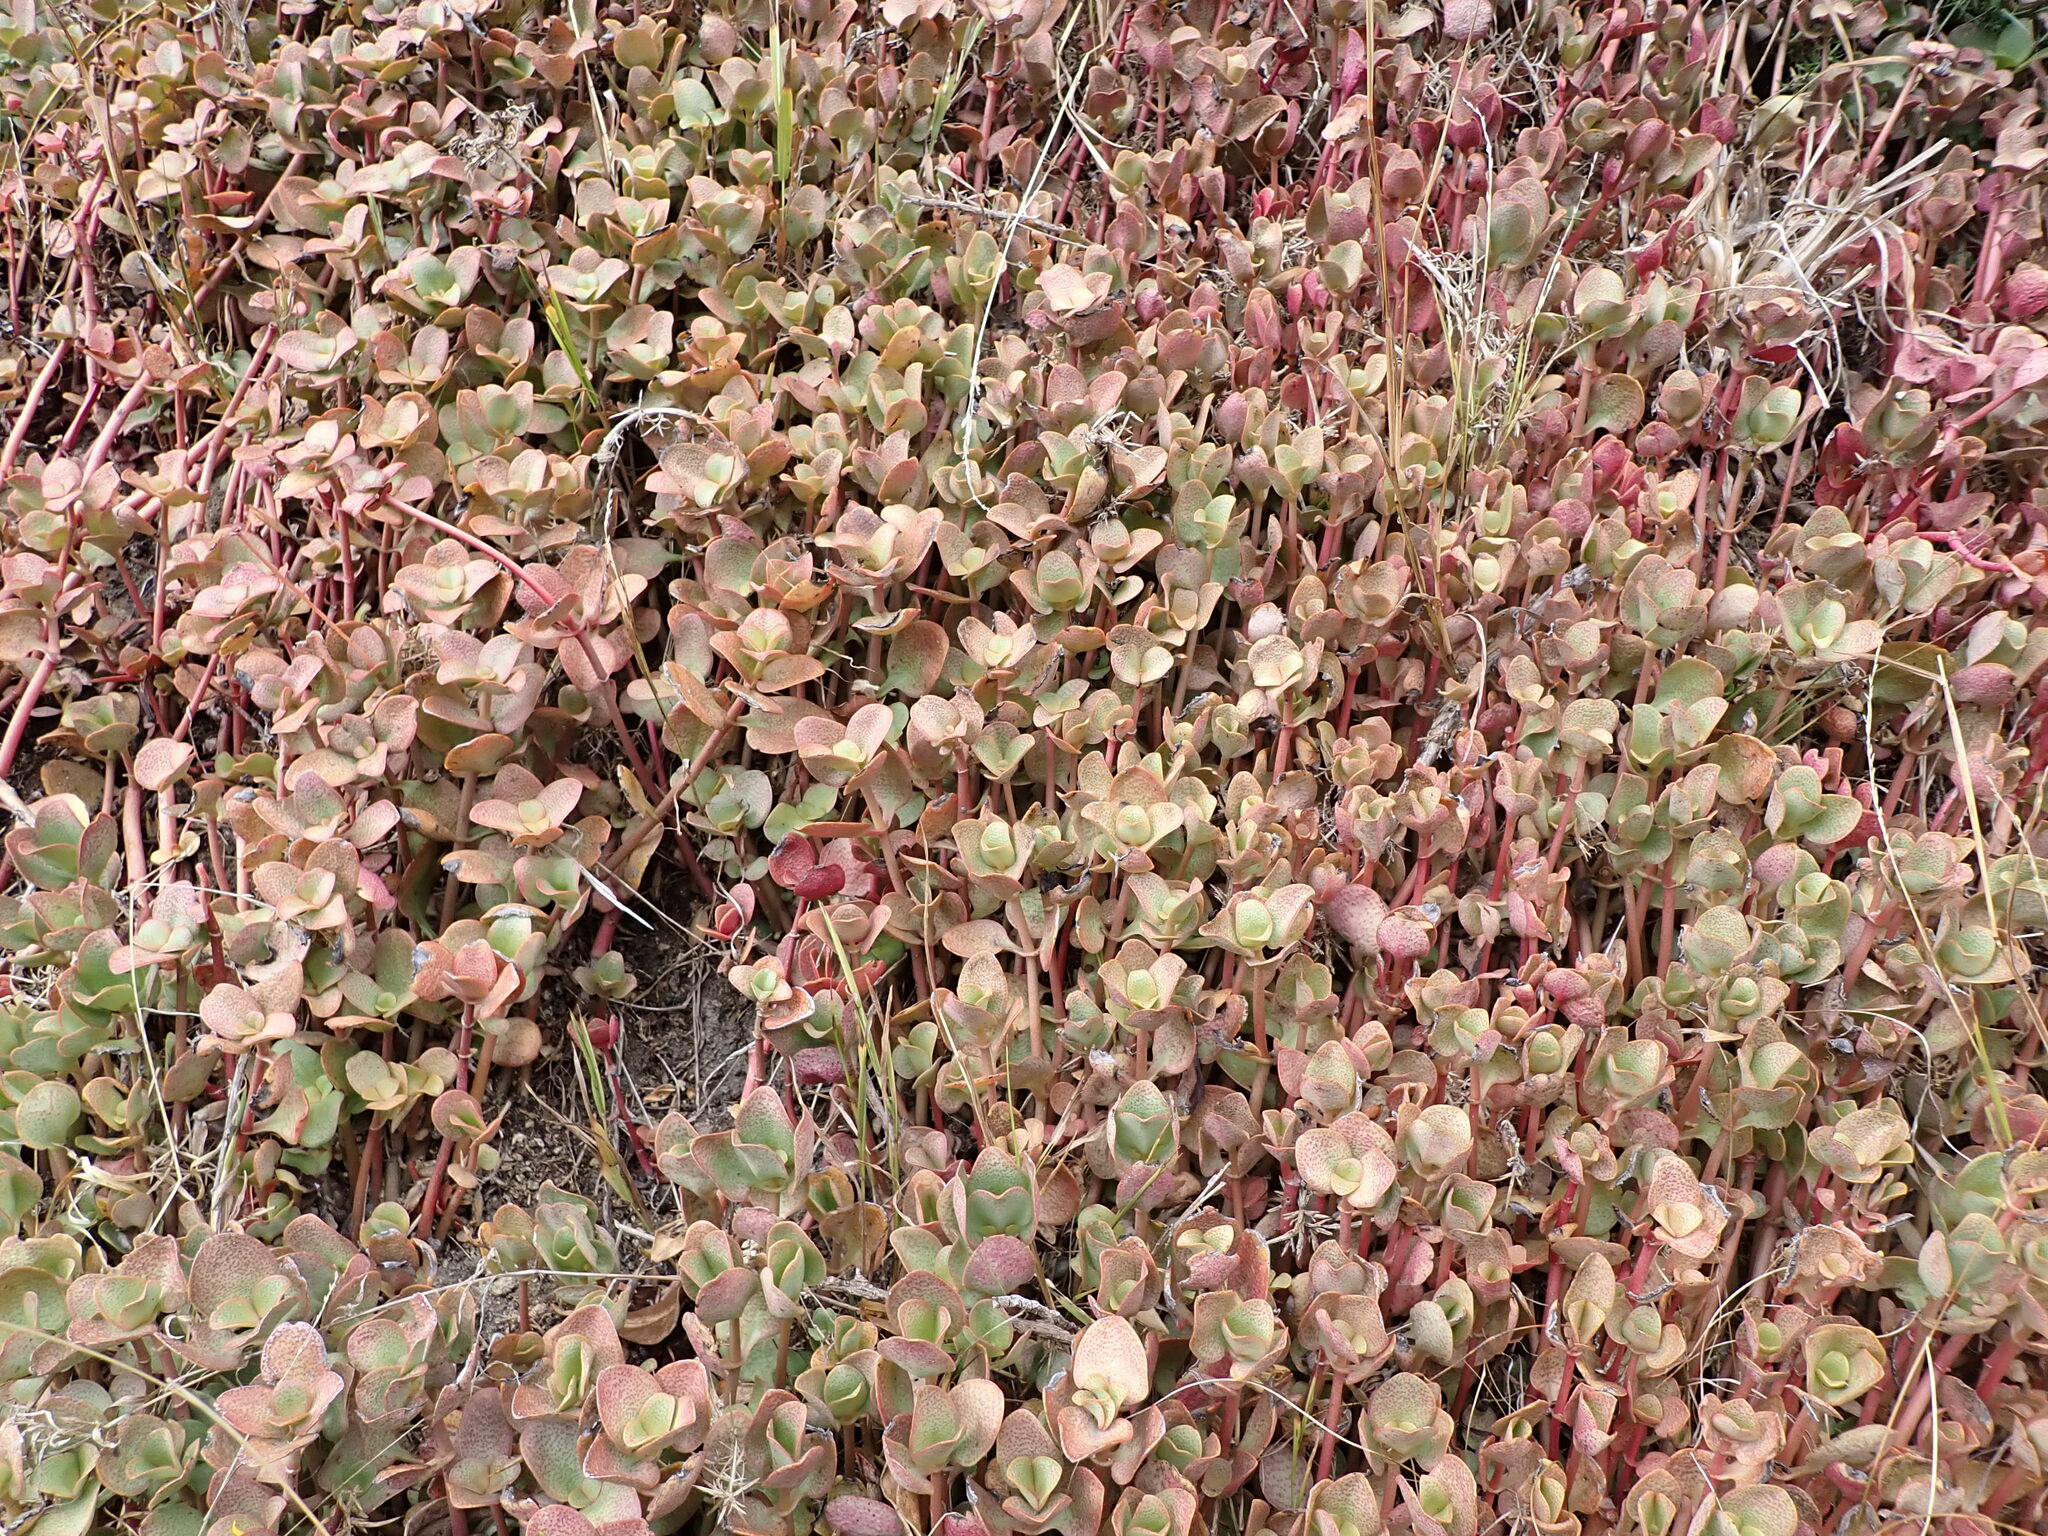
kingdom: Plantae
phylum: Tracheophyta
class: Magnoliopsida
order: Saxifragales
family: Crassulaceae
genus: Crassula
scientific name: Crassula multicava
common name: Cape province pygmyweed
